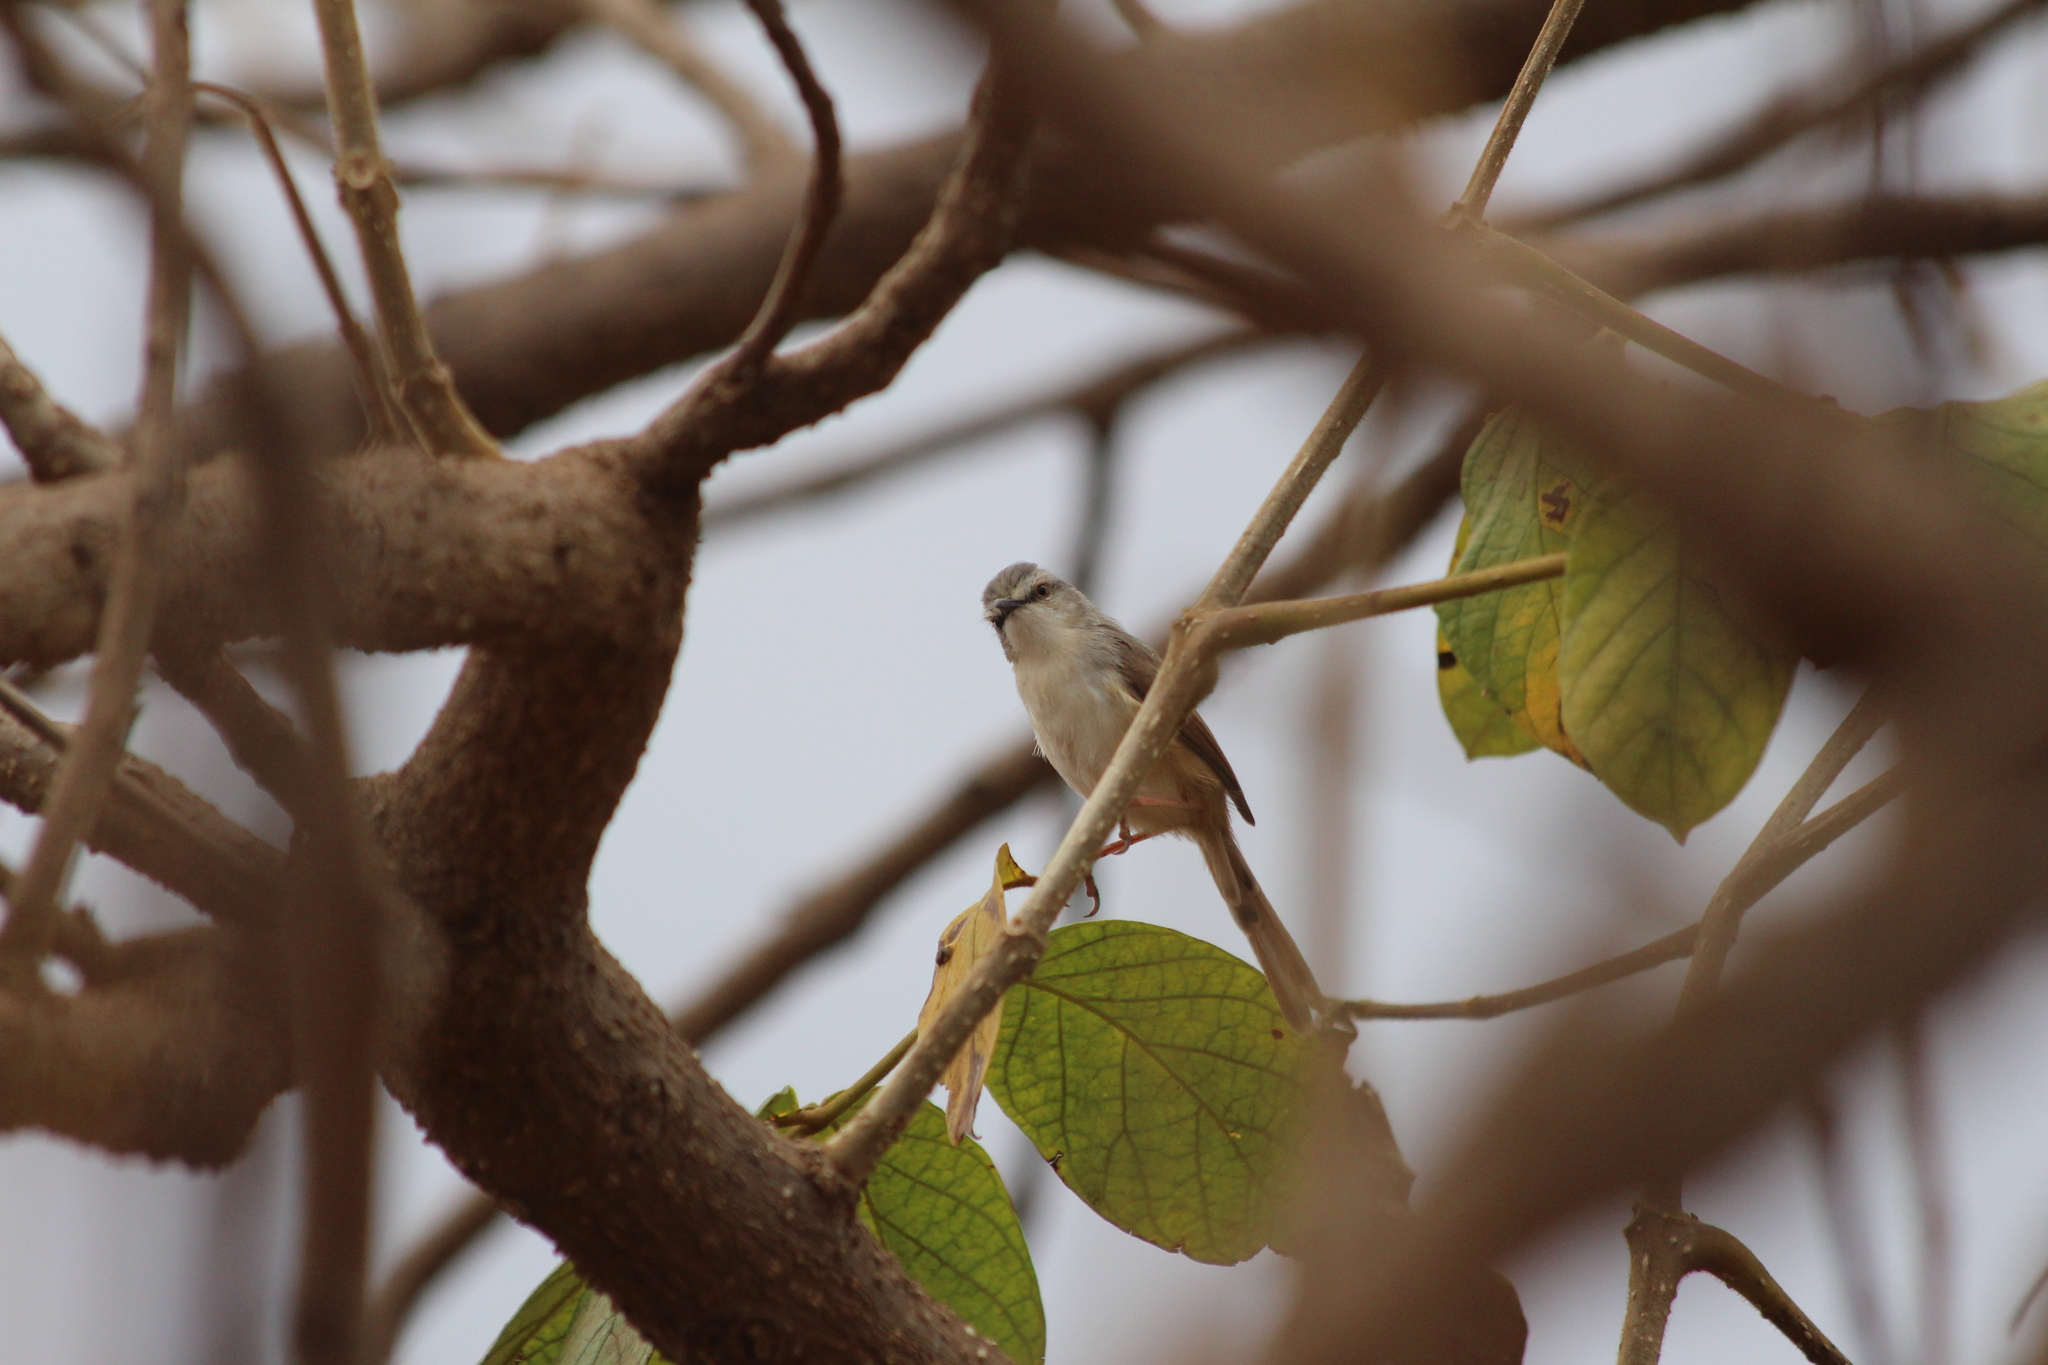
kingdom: Animalia
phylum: Chordata
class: Aves
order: Passeriformes
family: Cisticolidae
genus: Prinia
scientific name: Prinia subflava
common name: Tawny-flanked prinia
